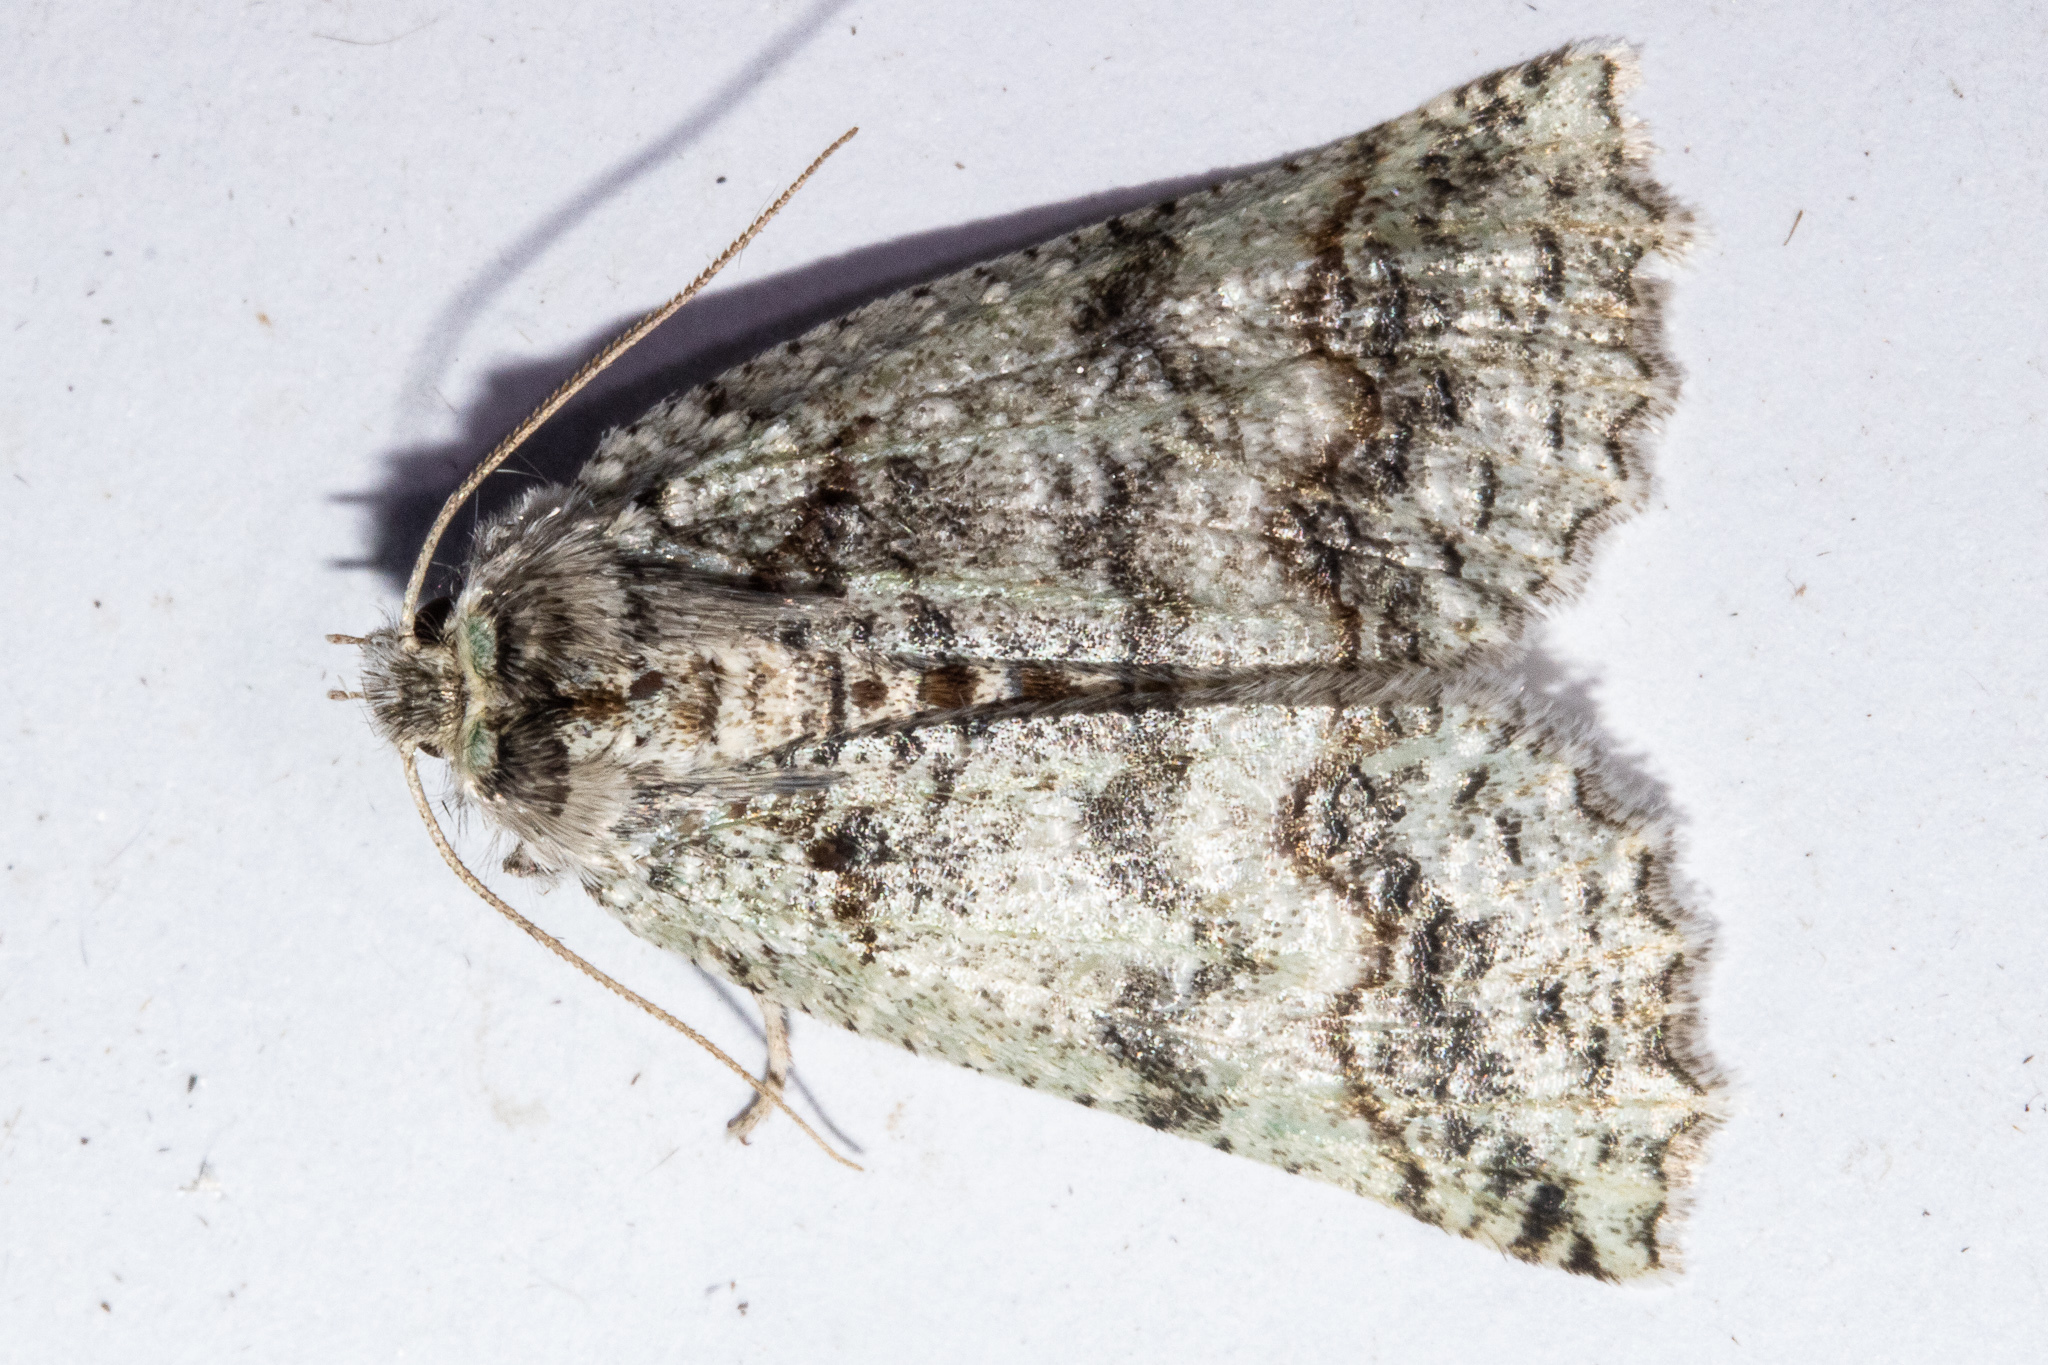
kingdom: Animalia
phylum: Arthropoda
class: Insecta
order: Lepidoptera
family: Geometridae
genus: Declana
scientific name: Declana floccosa
